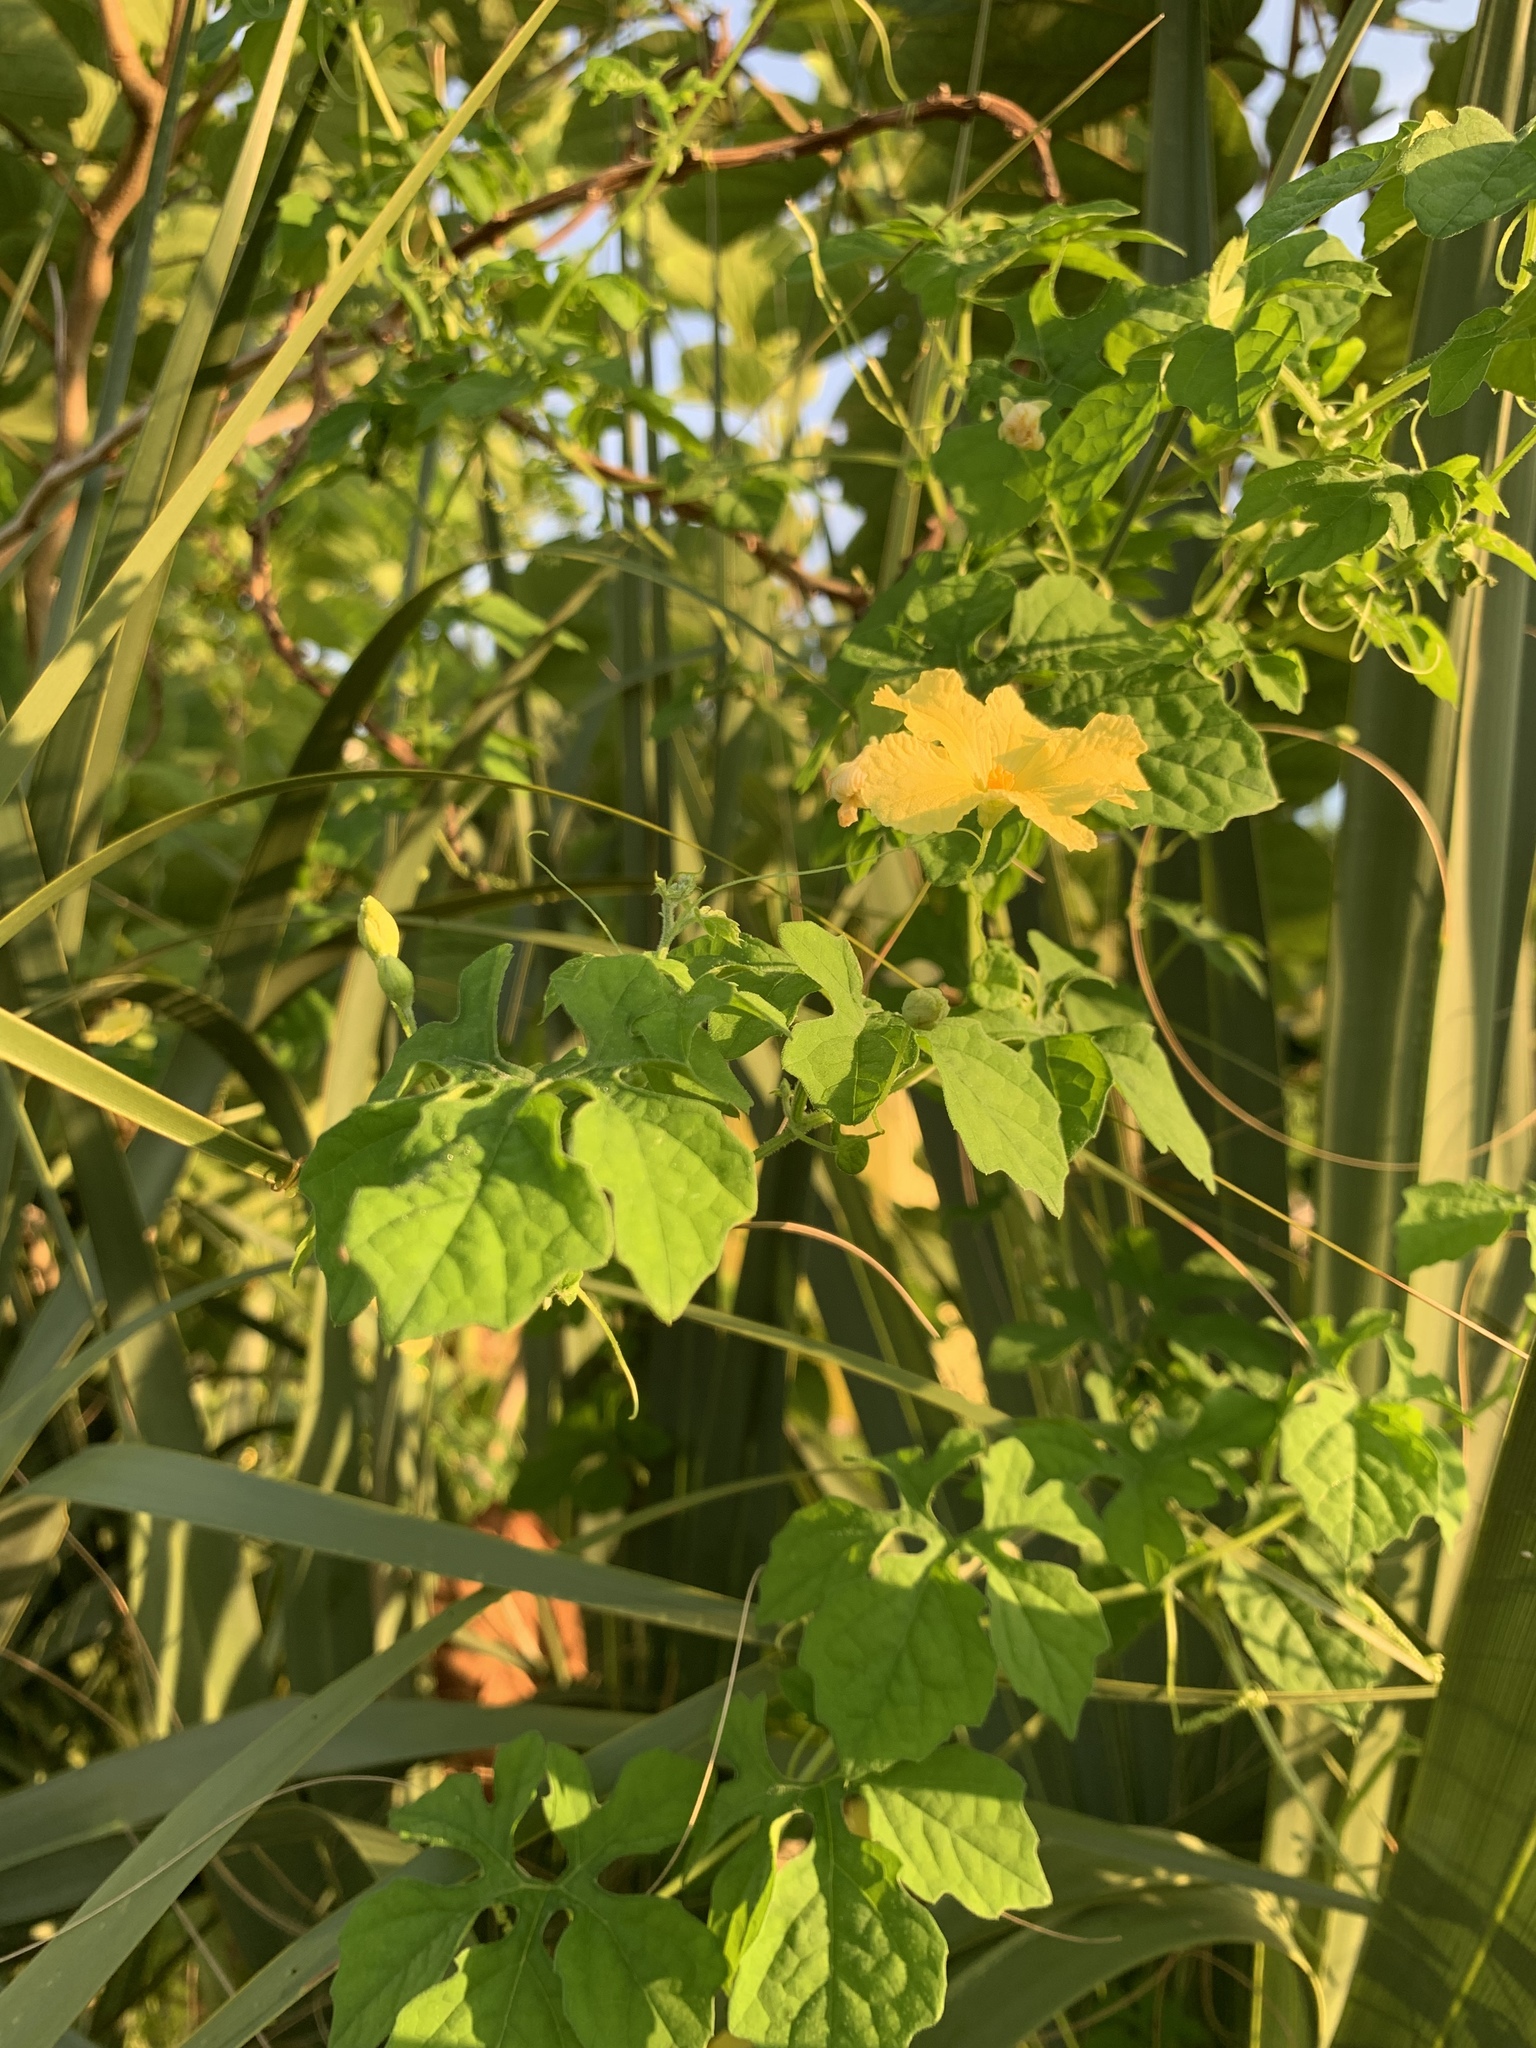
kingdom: Plantae
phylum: Tracheophyta
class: Magnoliopsida
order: Cucurbitales
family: Cucurbitaceae
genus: Momordica
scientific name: Momordica charantia
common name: Balsampear
